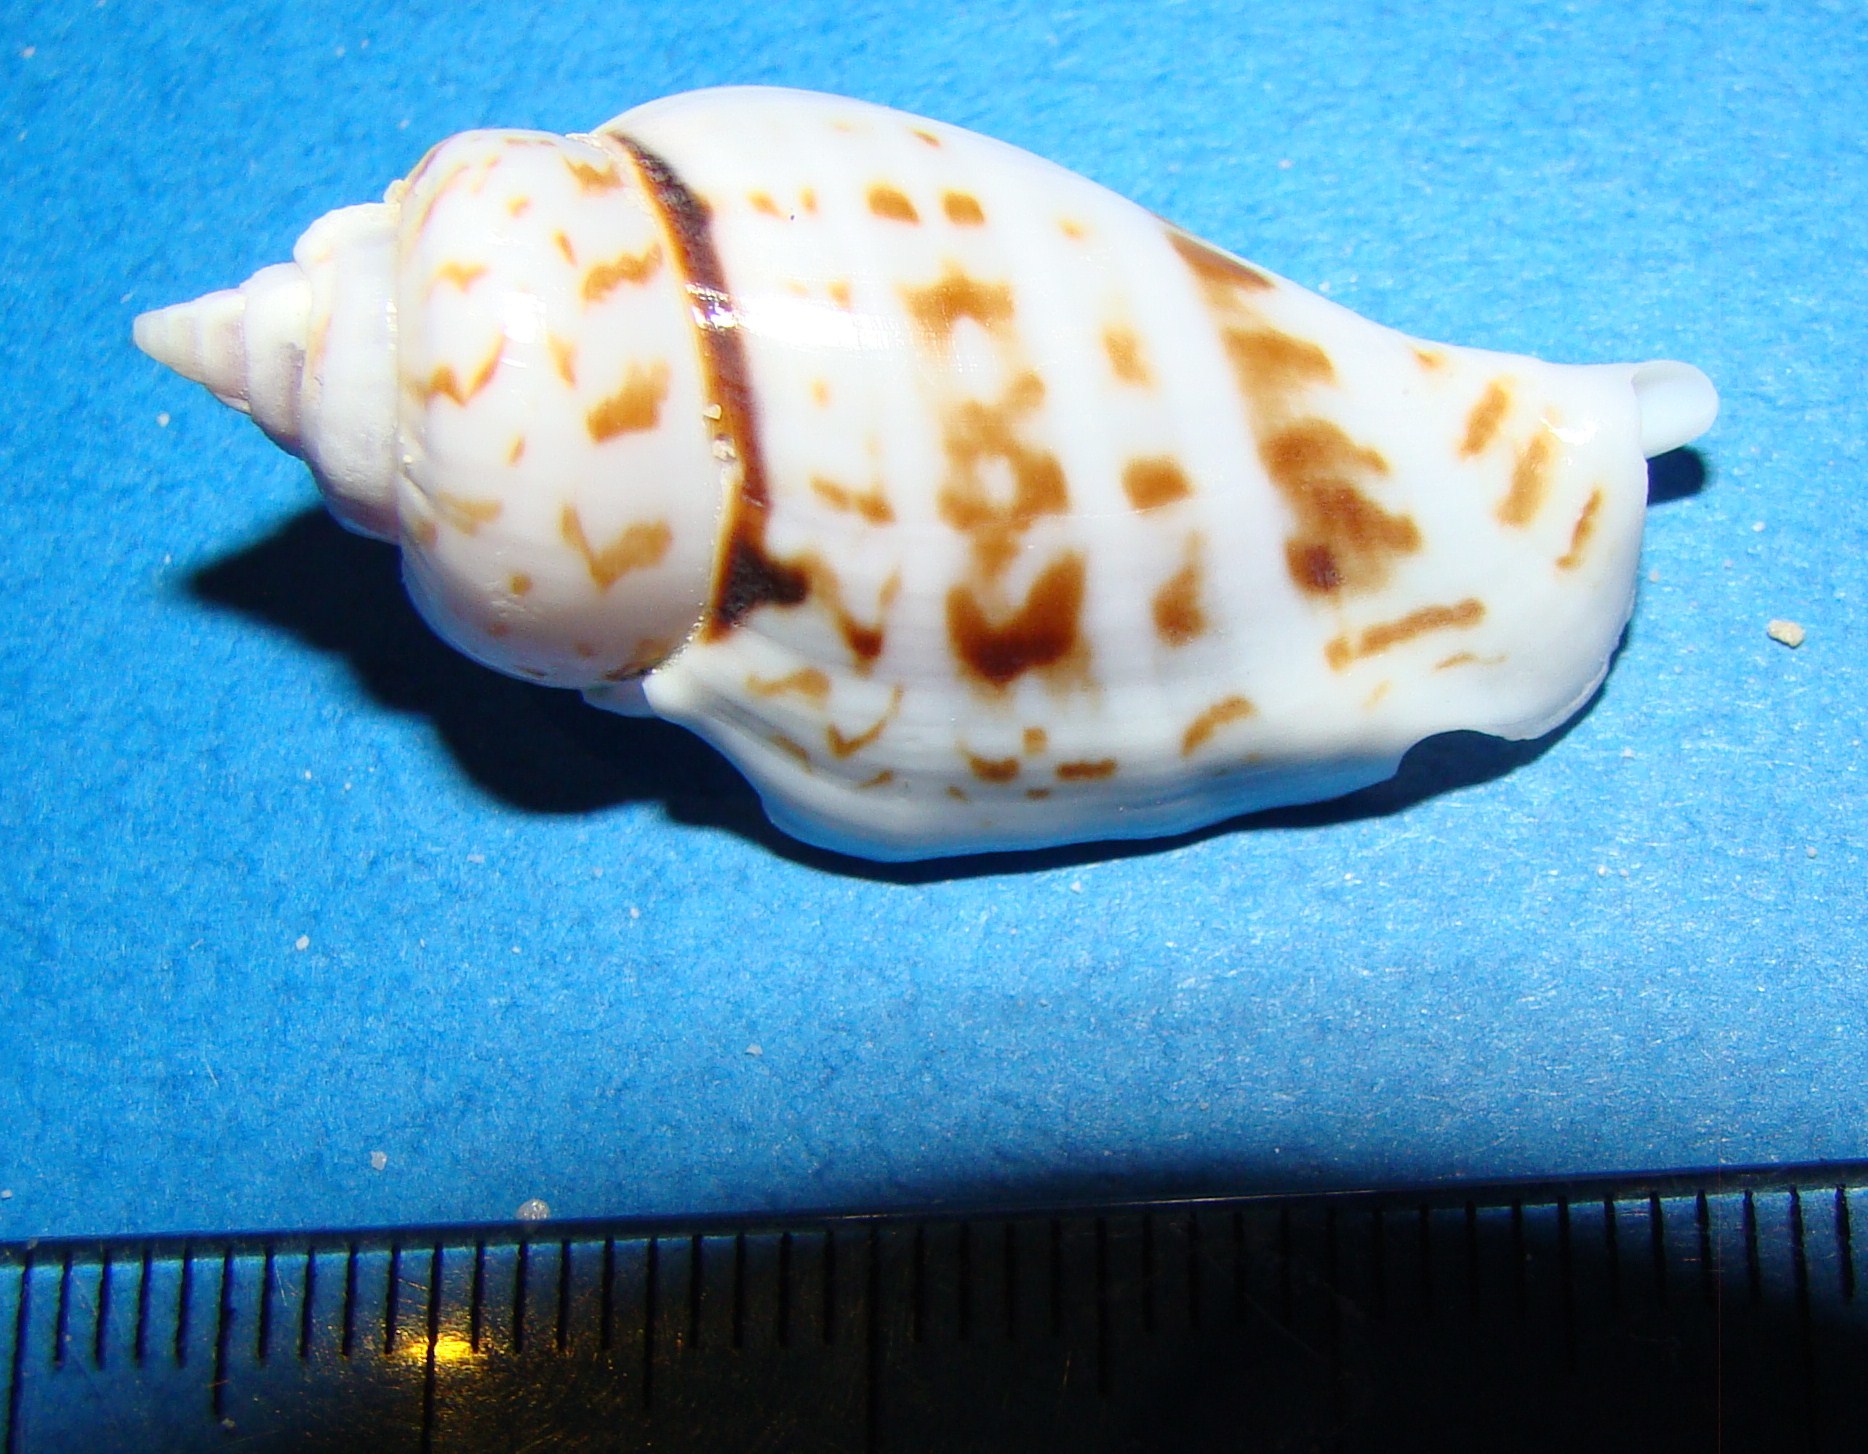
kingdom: Animalia
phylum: Mollusca
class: Gastropoda
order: Littorinimorpha
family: Strombidae
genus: Gibberulus
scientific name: Gibberulus gibberulus
